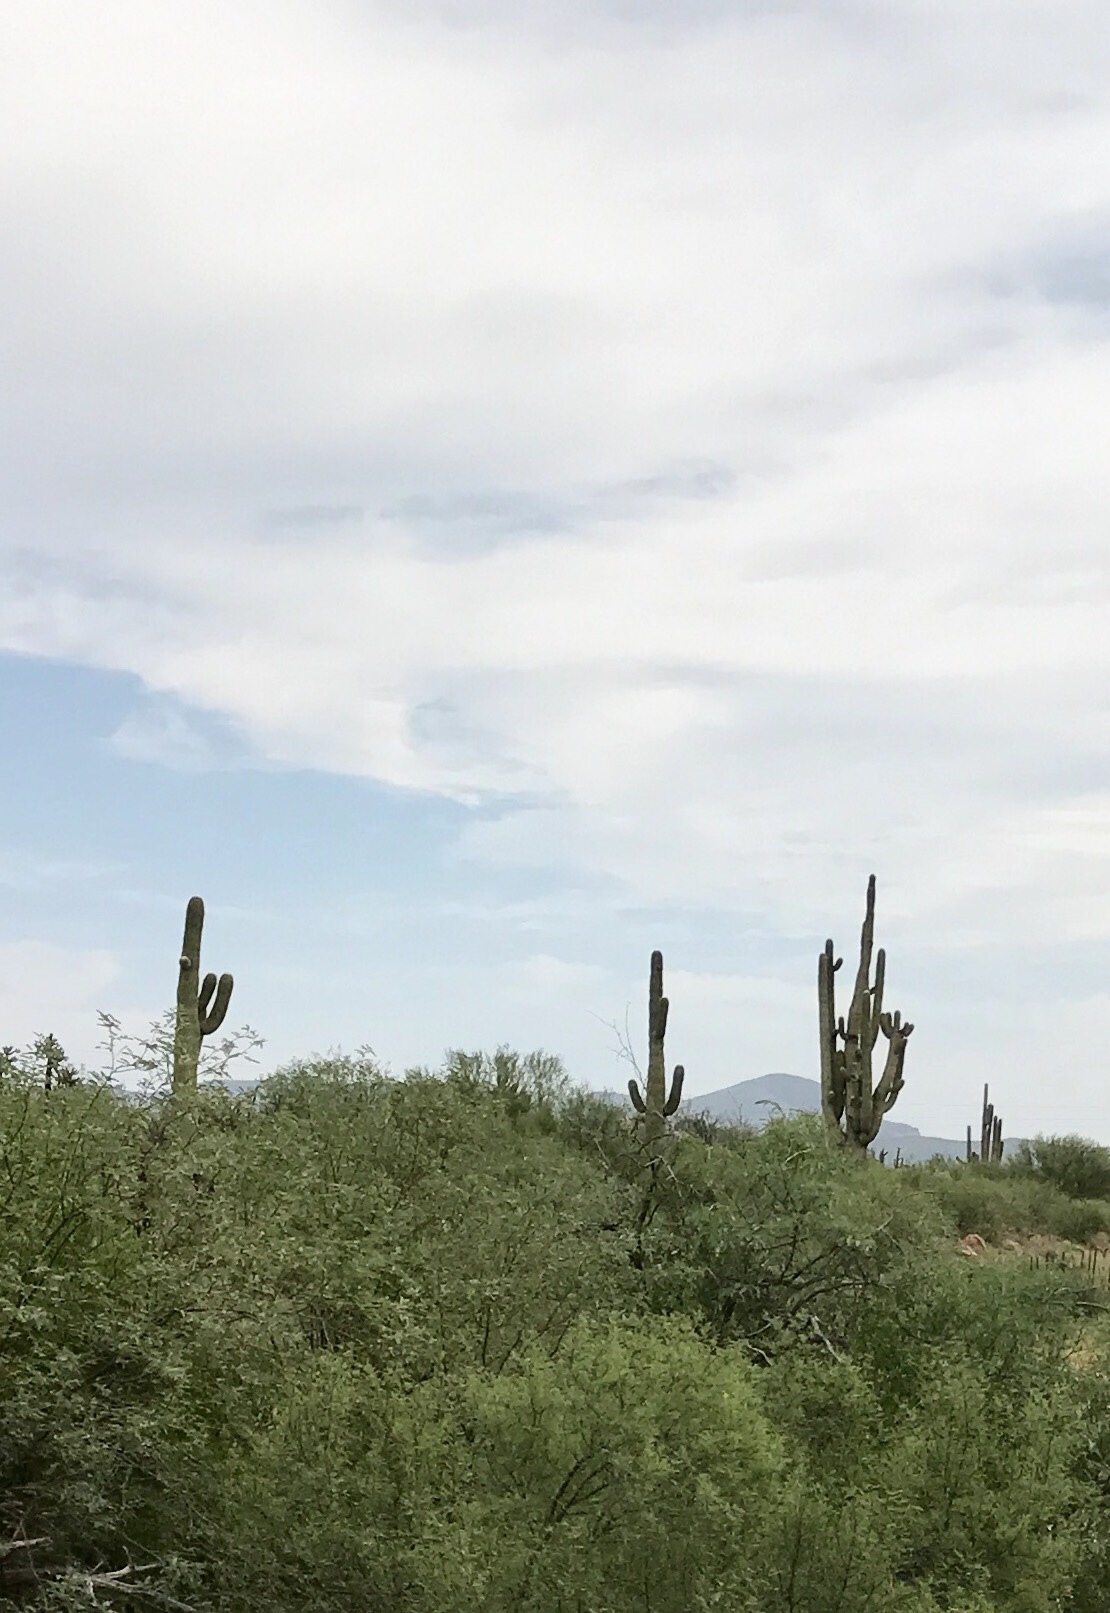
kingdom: Plantae
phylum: Tracheophyta
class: Magnoliopsida
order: Caryophyllales
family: Cactaceae
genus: Carnegiea
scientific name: Carnegiea gigantea
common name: Saguaro
